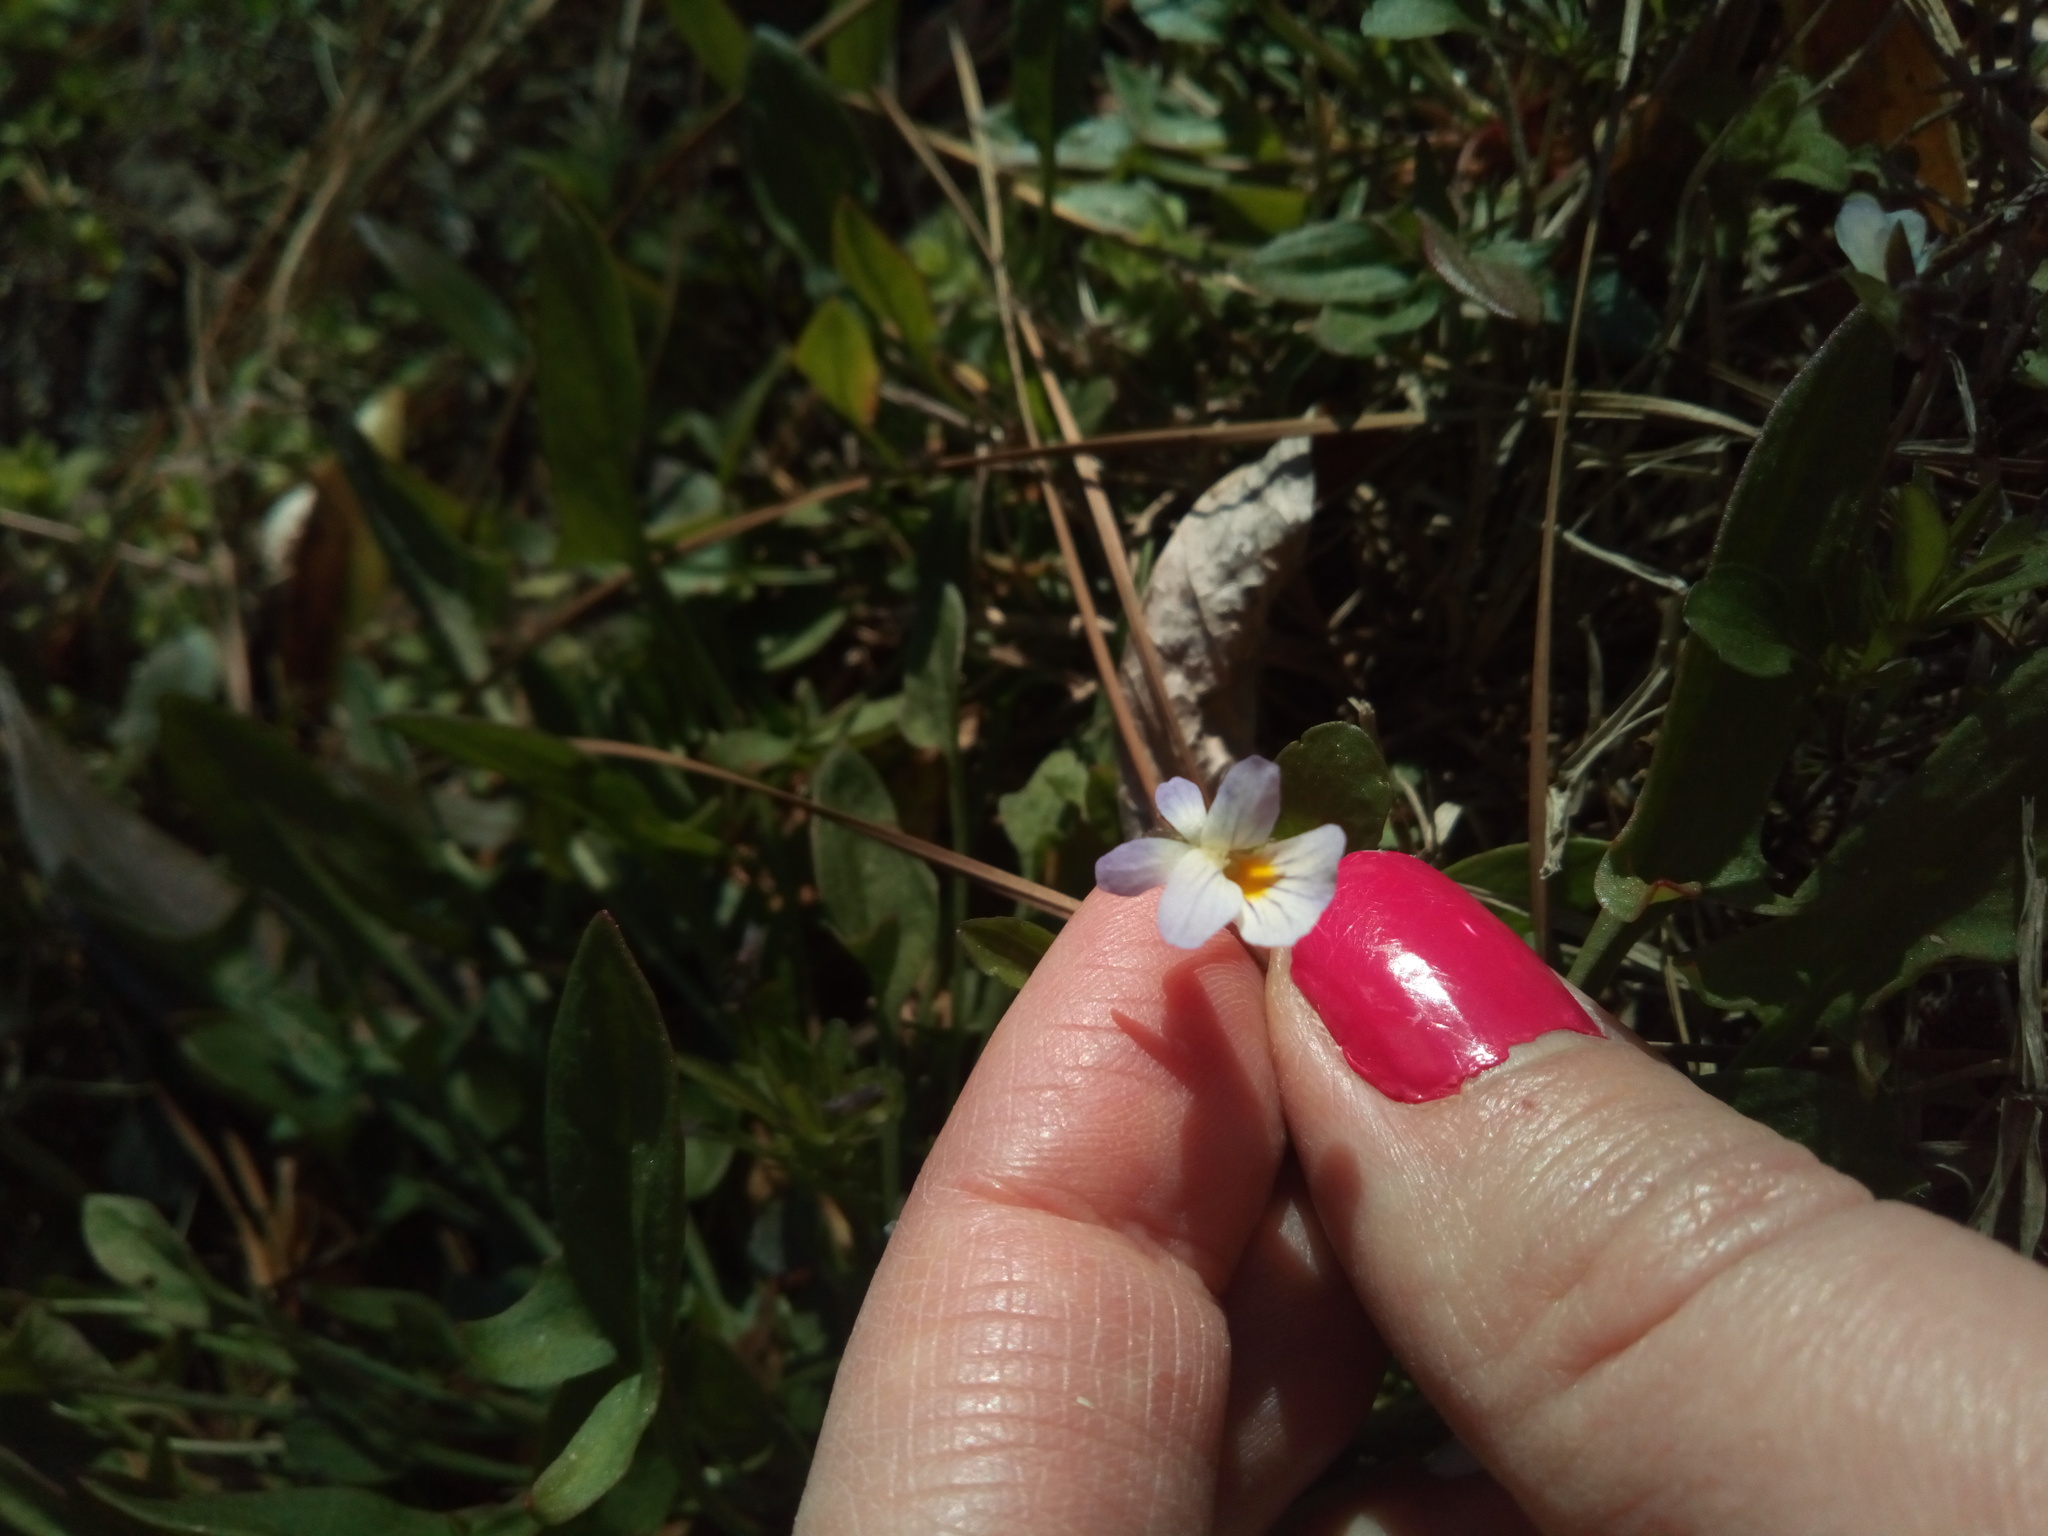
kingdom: Plantae
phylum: Tracheophyta
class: Magnoliopsida
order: Malpighiales
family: Violaceae
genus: Viola
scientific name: Viola rafinesquei
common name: American field pansy
